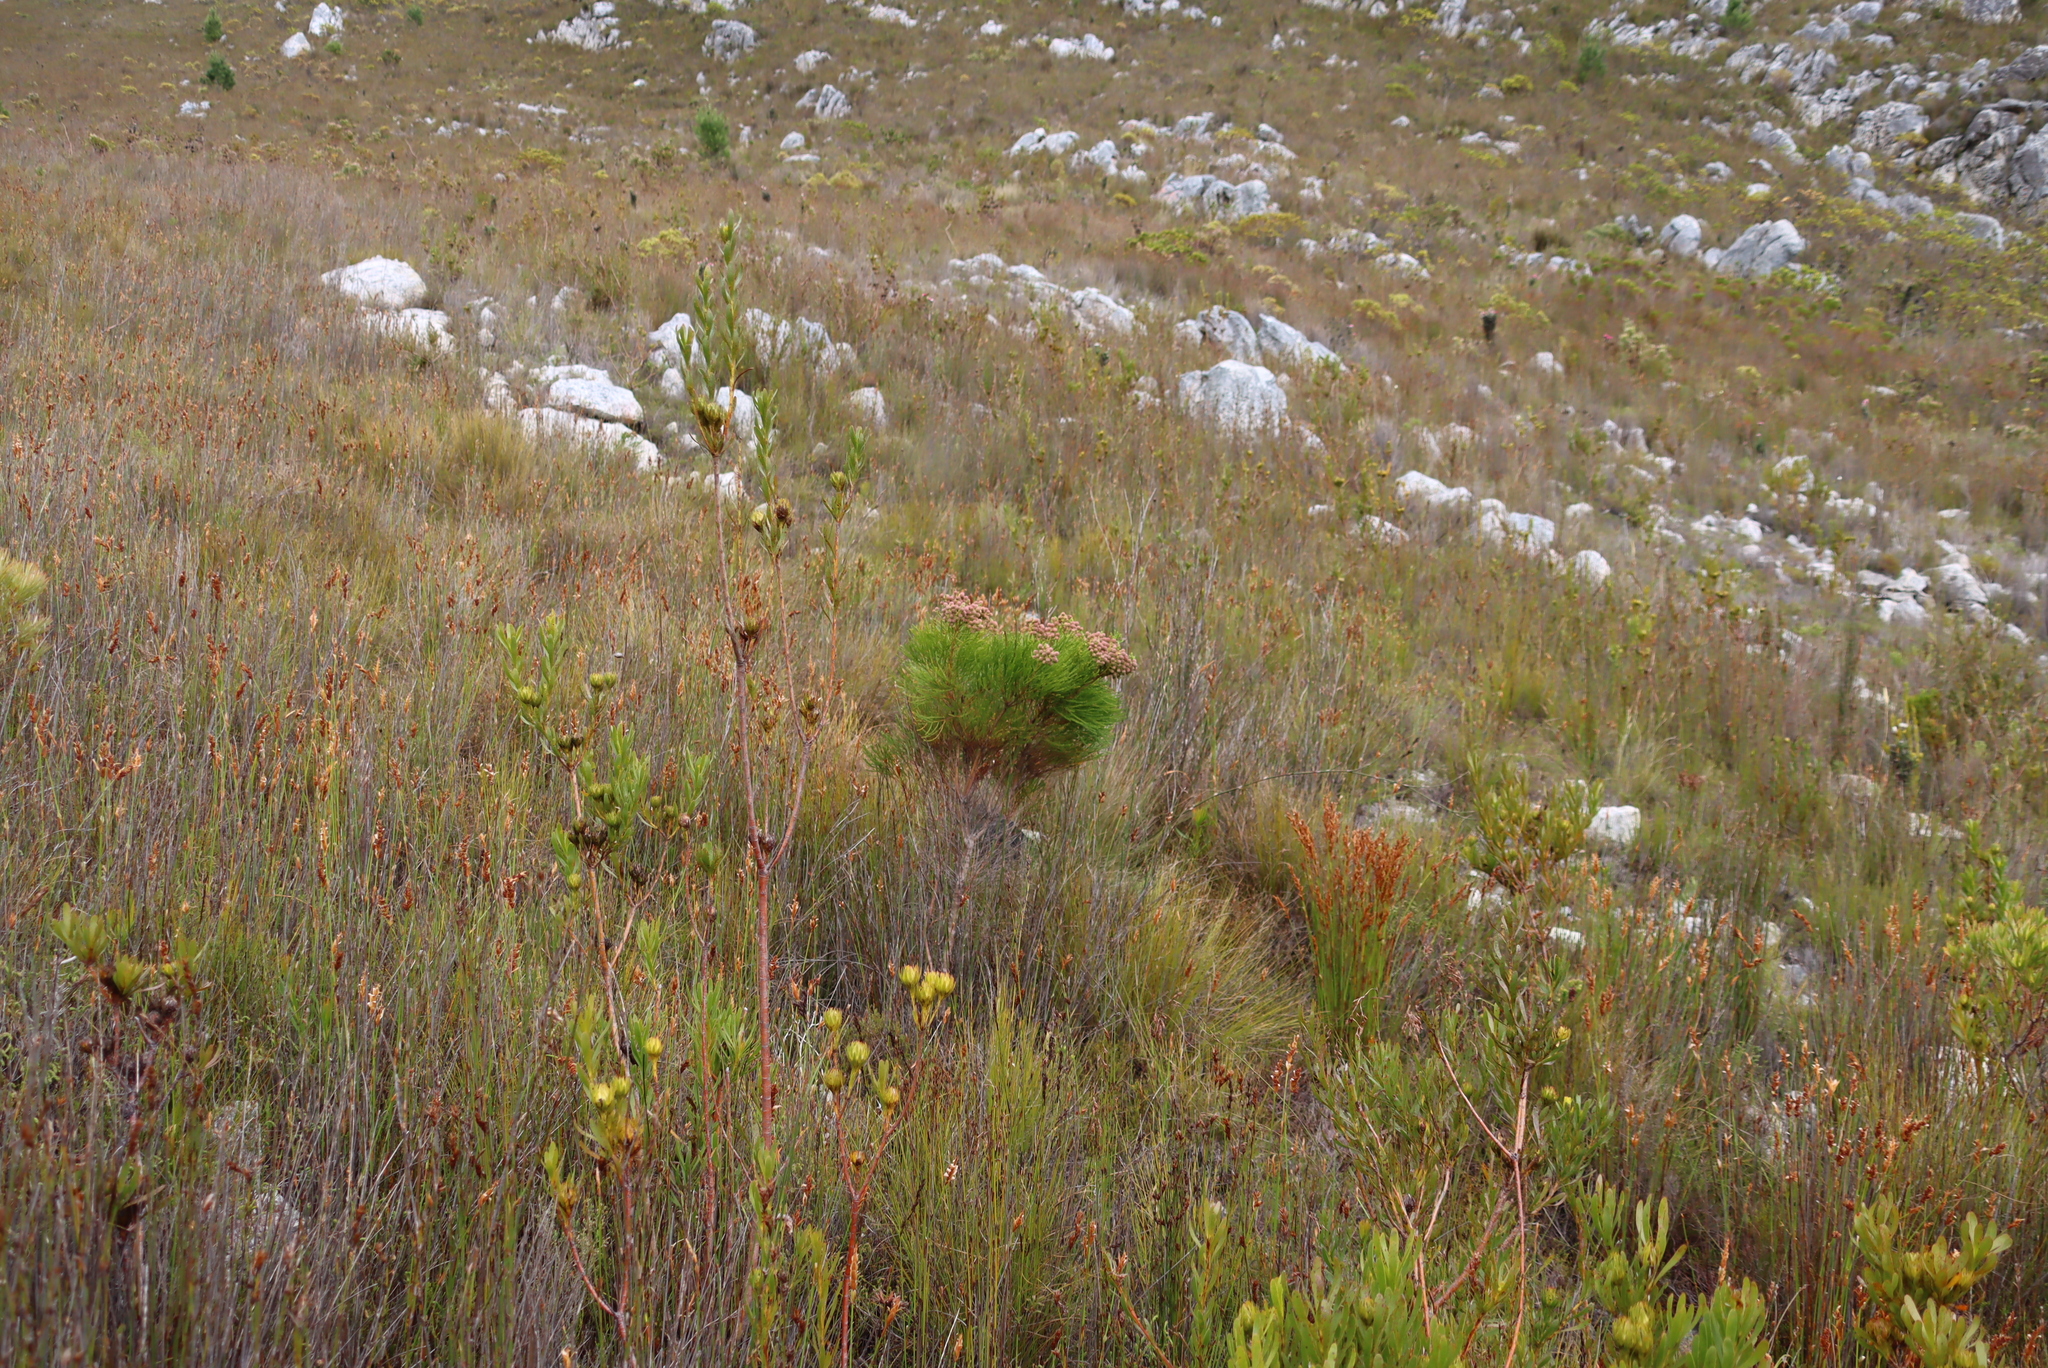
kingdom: Plantae
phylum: Tracheophyta
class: Magnoliopsida
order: Bruniales
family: Bruniaceae
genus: Berzelia
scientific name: Berzelia lanuginosa
